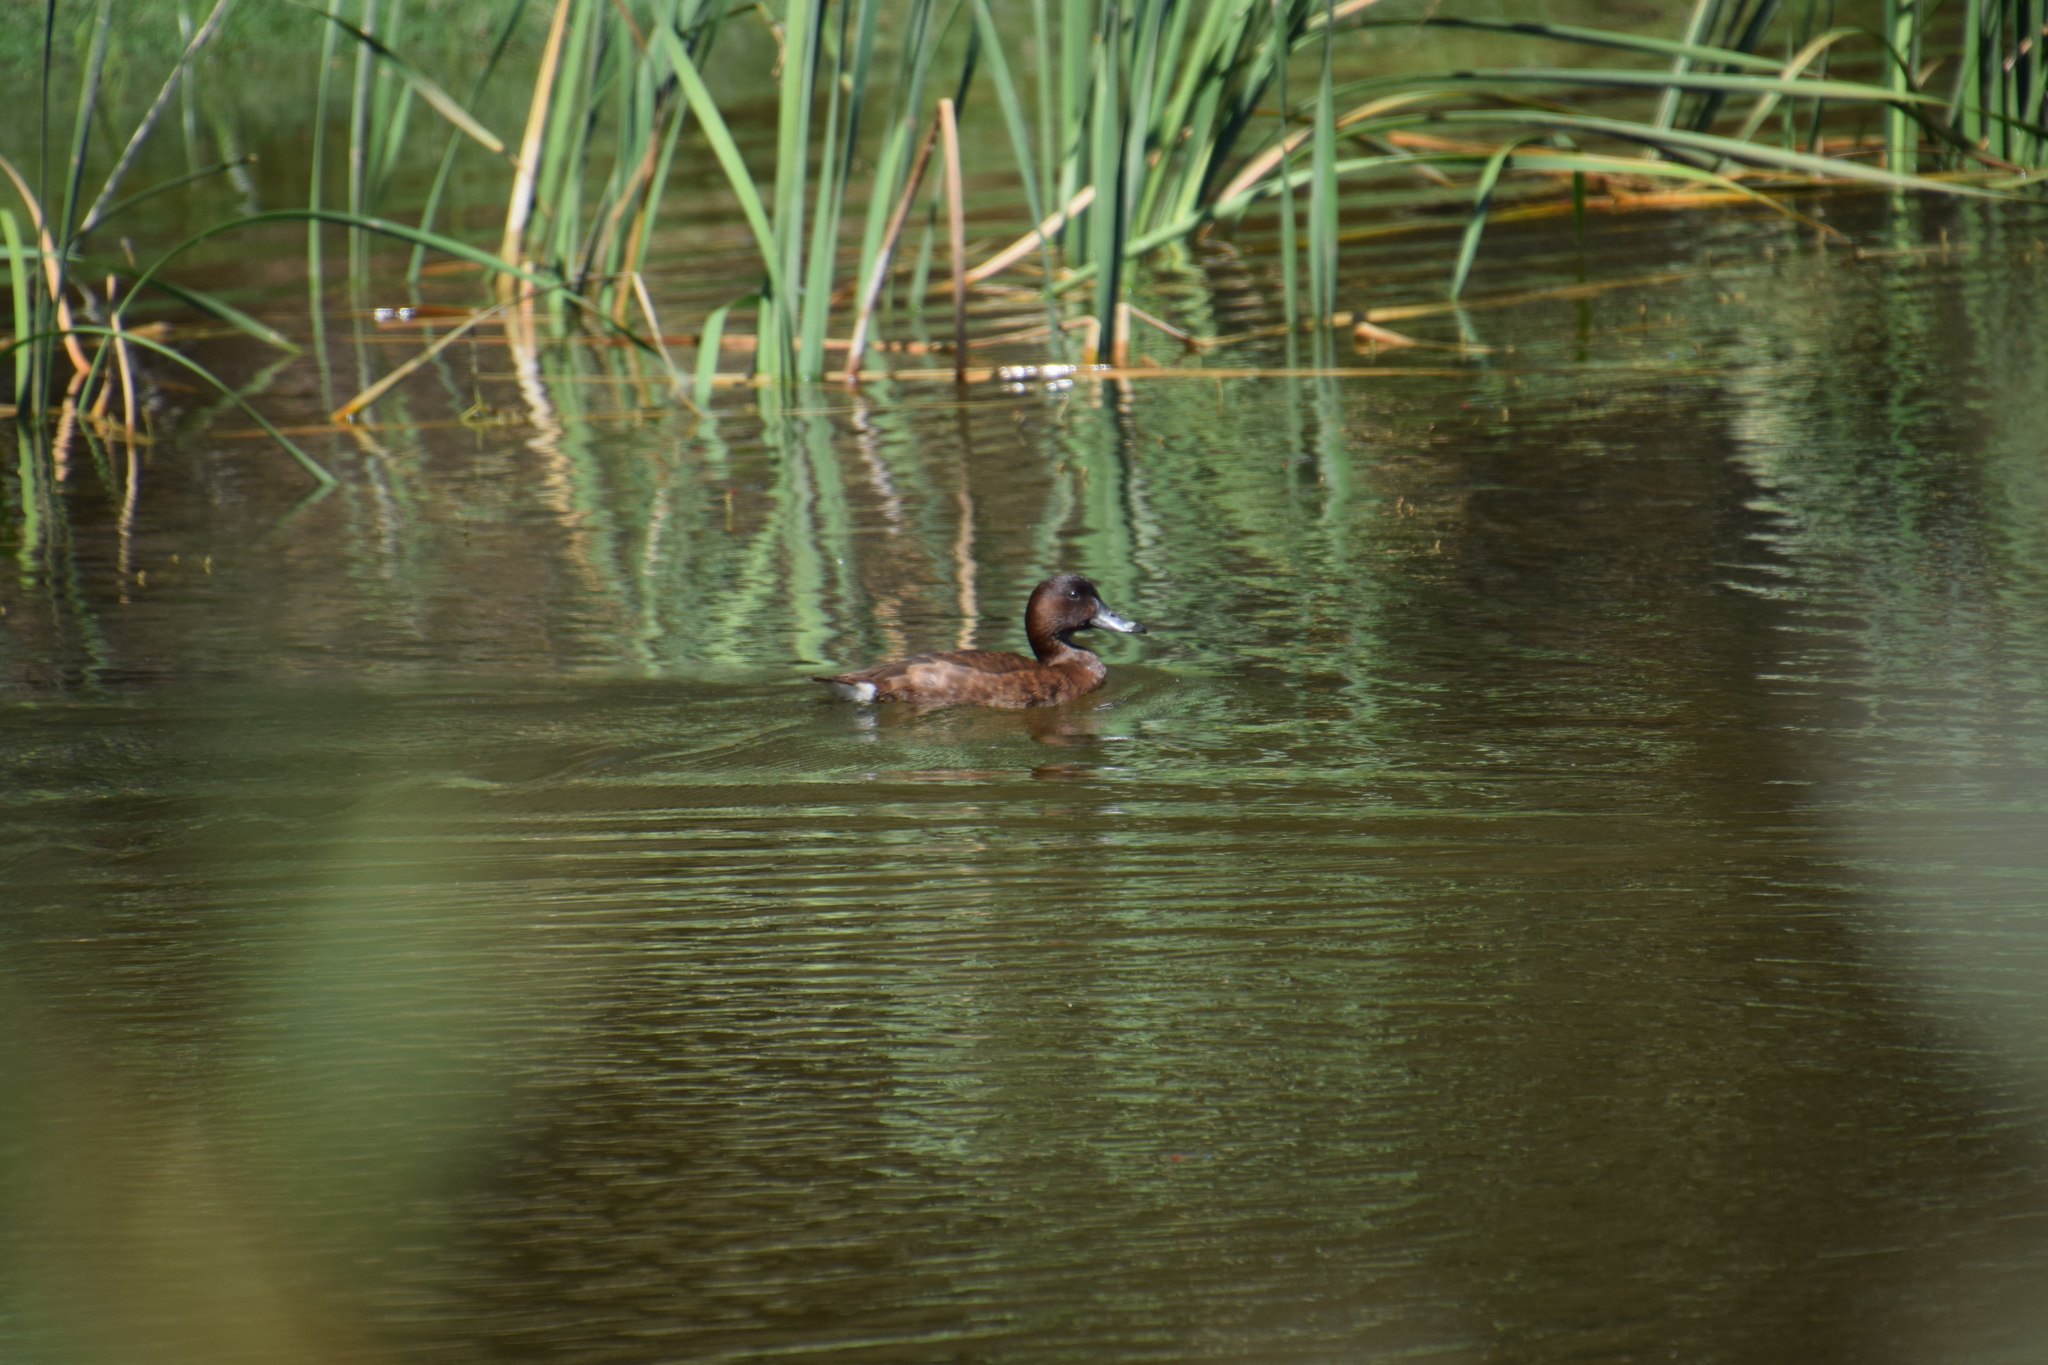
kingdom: Animalia
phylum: Chordata
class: Aves
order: Anseriformes
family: Anatidae
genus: Aythya
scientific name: Aythya australis
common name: Hardhead
